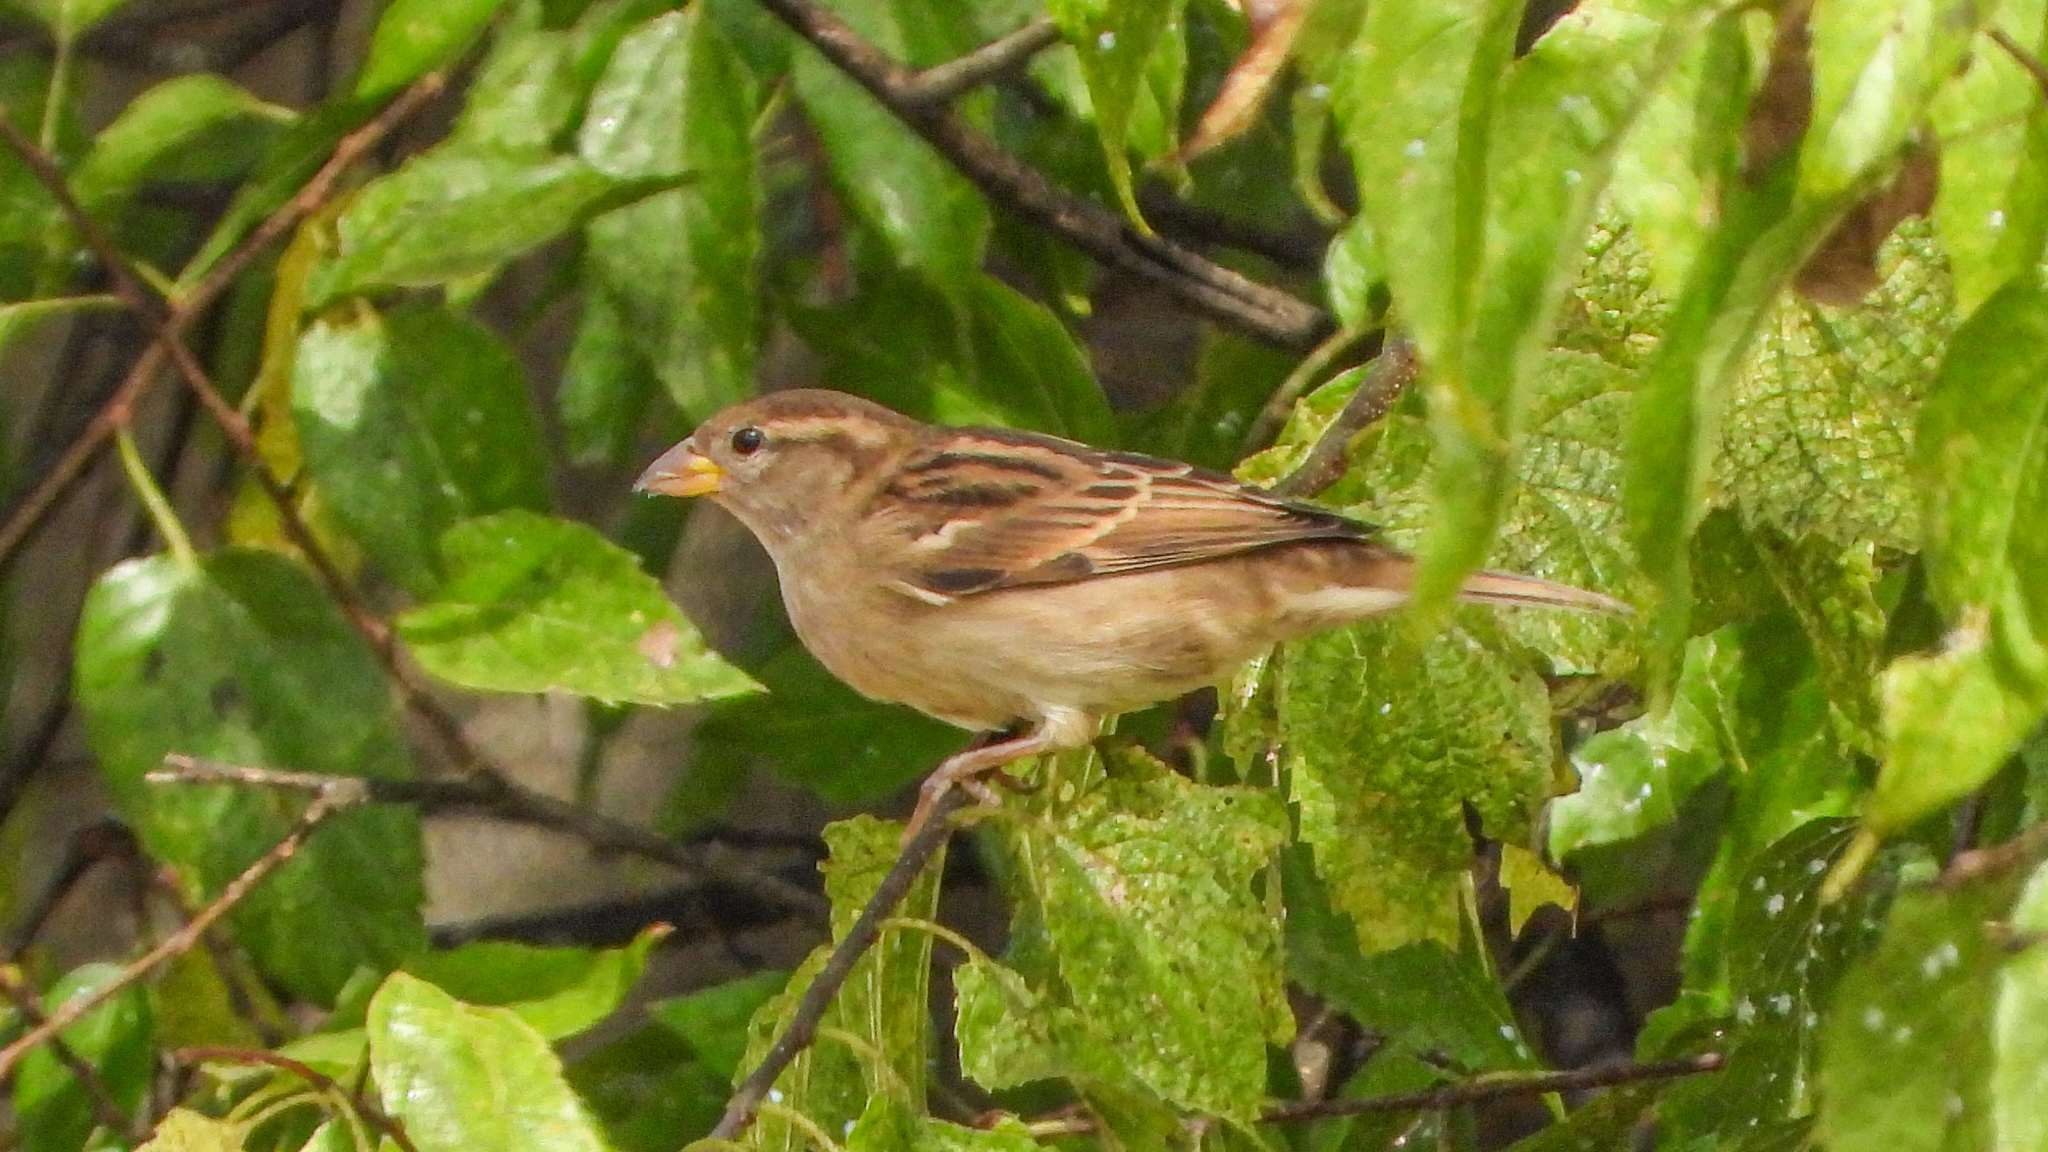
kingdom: Animalia
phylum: Chordata
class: Aves
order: Passeriformes
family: Passeridae
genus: Passer
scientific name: Passer domesticus
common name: House sparrow
